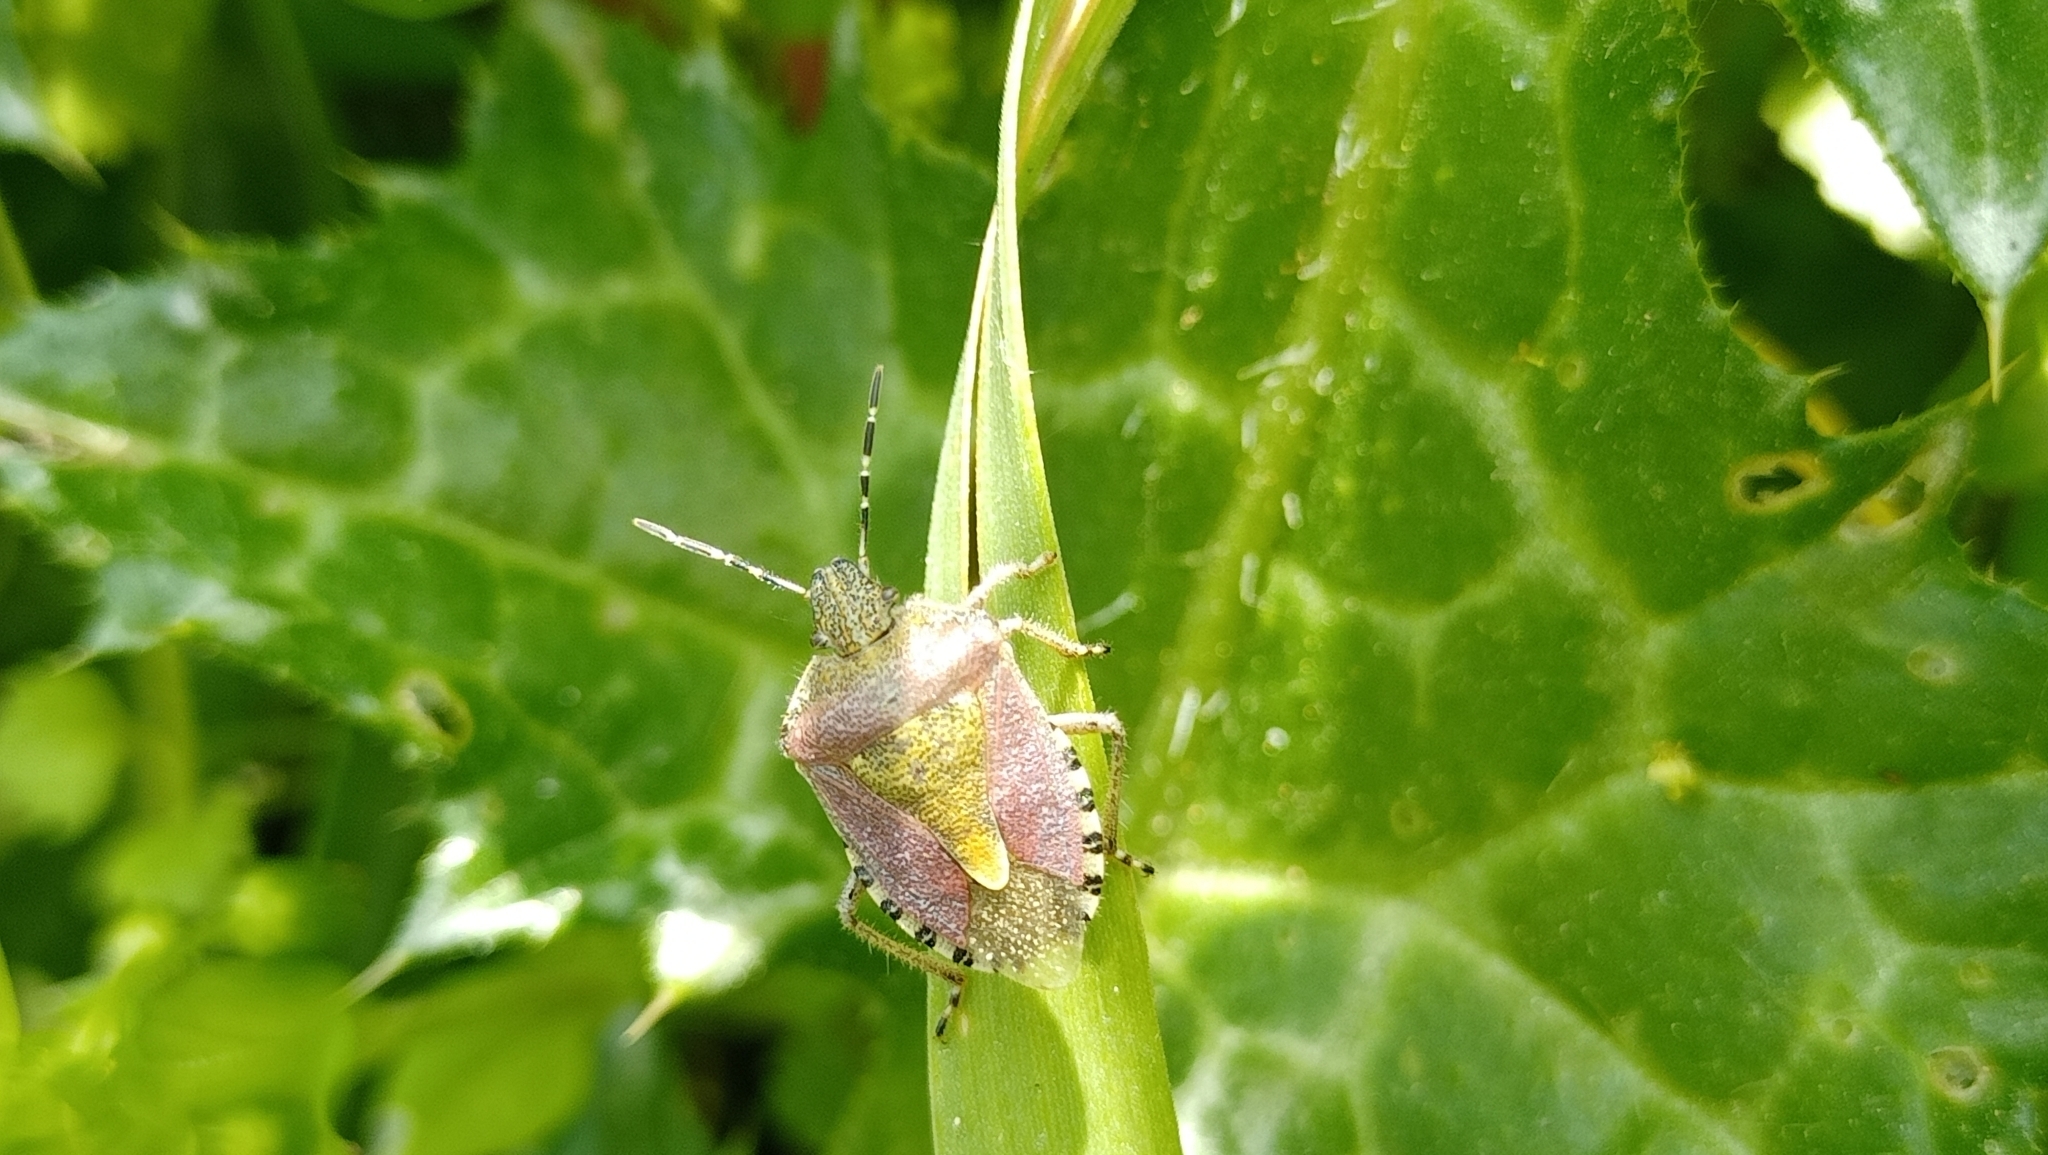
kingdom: Animalia
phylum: Arthropoda
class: Insecta
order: Hemiptera
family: Pentatomidae
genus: Dolycoris
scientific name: Dolycoris baccarum
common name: Sloe bug
